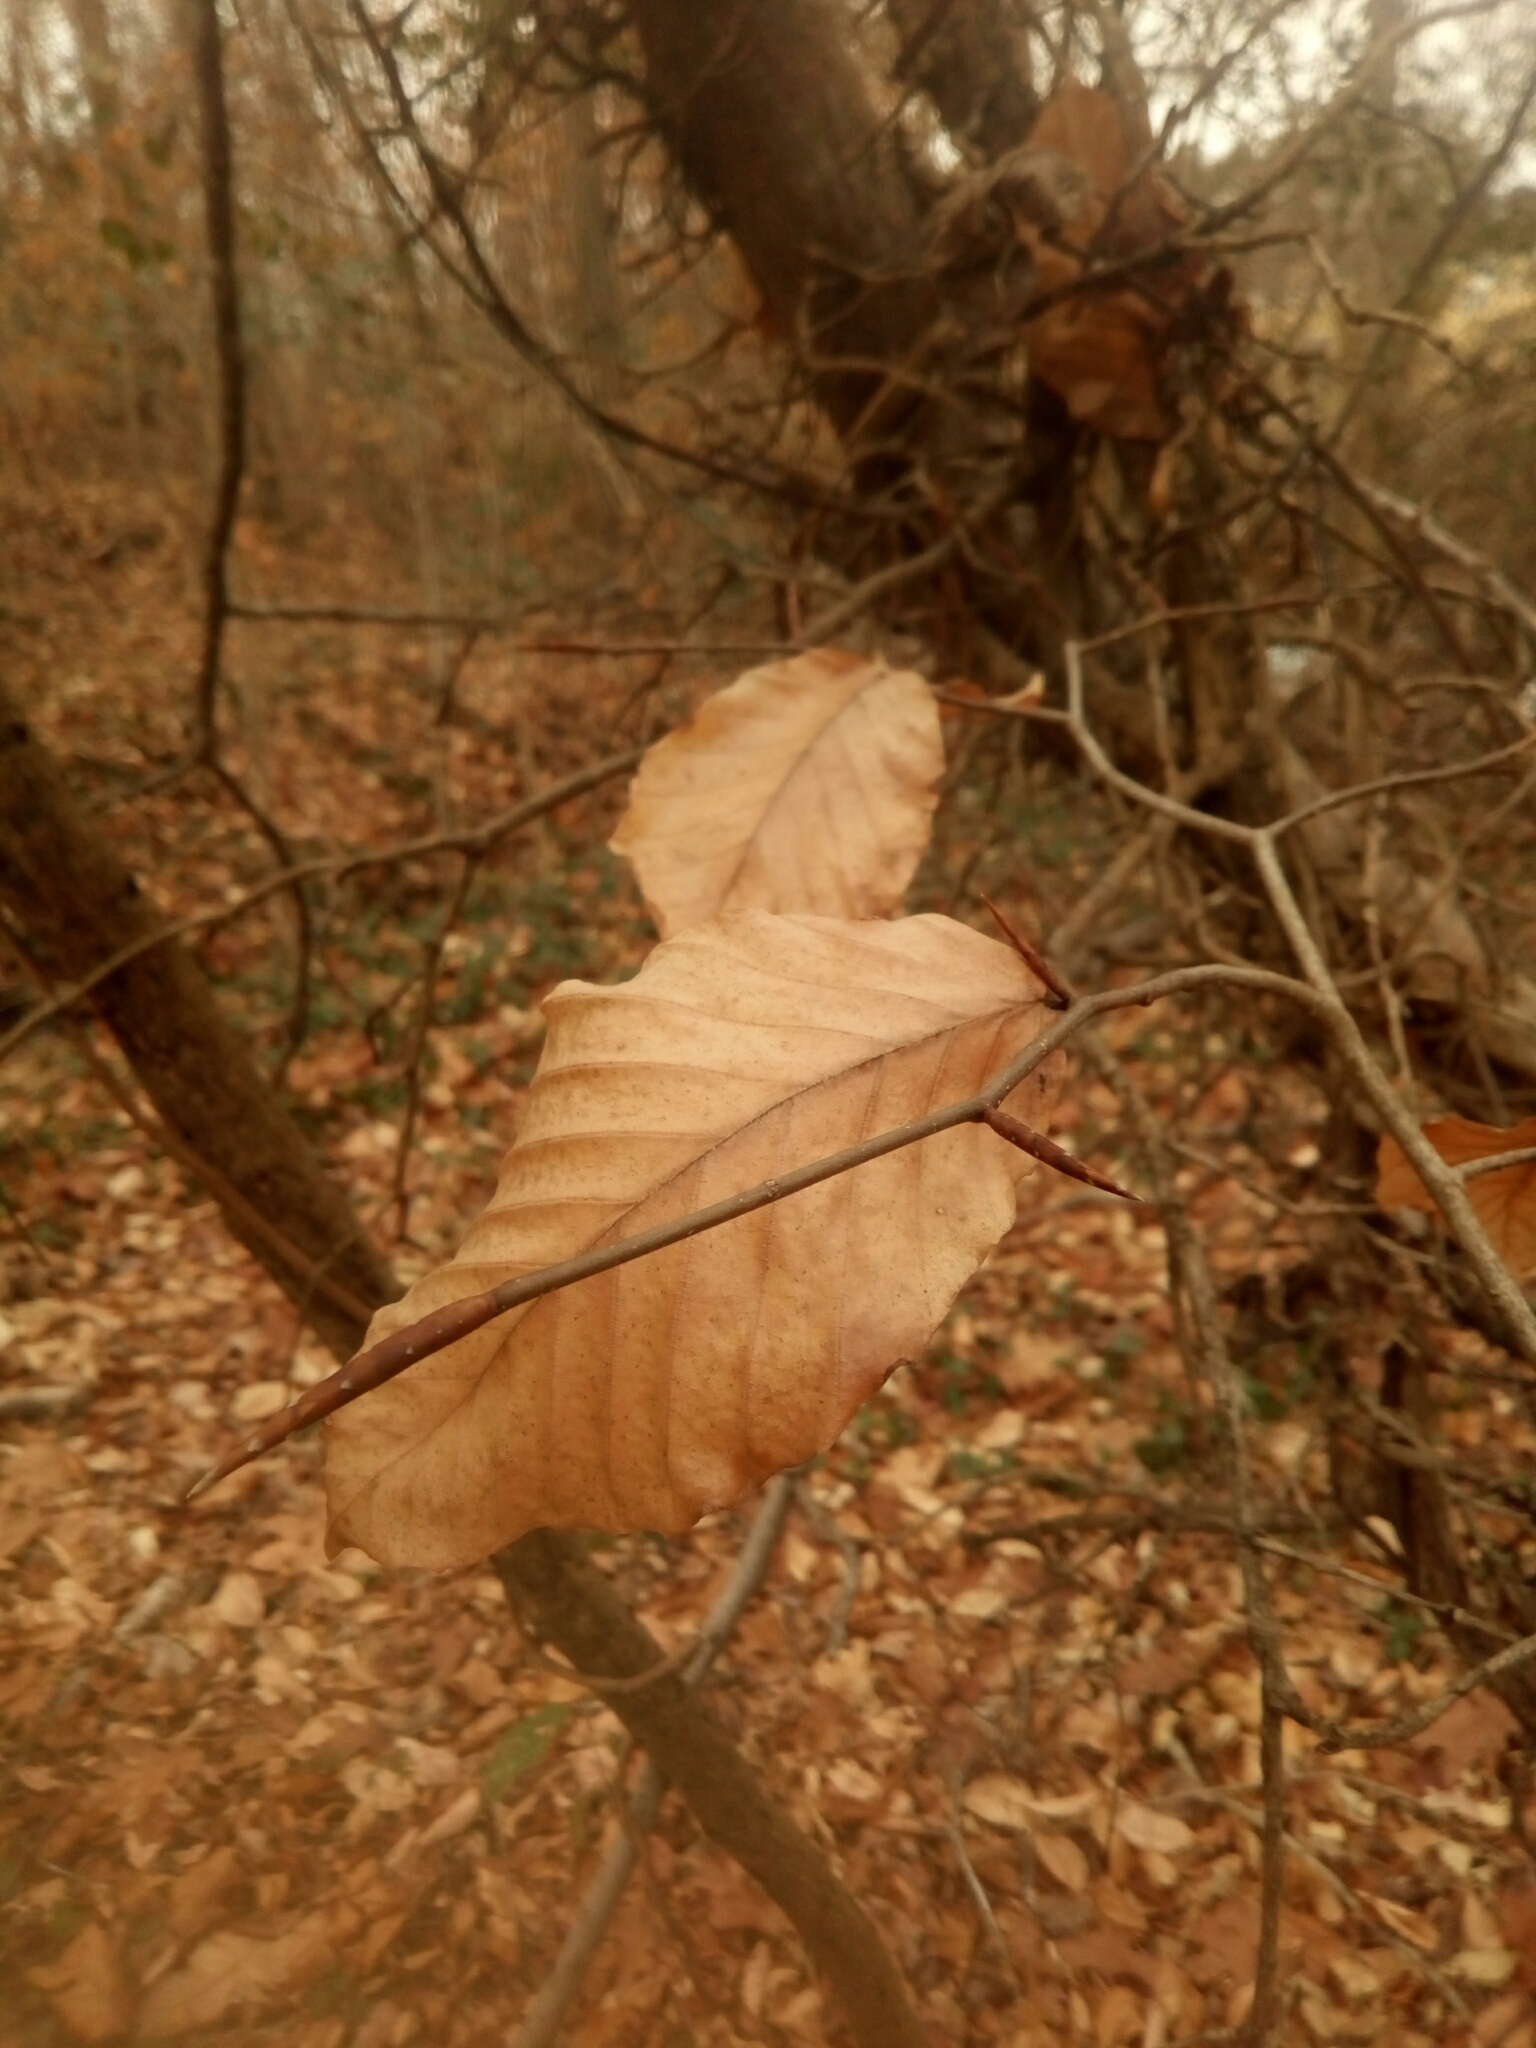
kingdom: Plantae
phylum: Tracheophyta
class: Magnoliopsida
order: Fagales
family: Fagaceae
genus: Fagus
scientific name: Fagus grandifolia
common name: American beech
